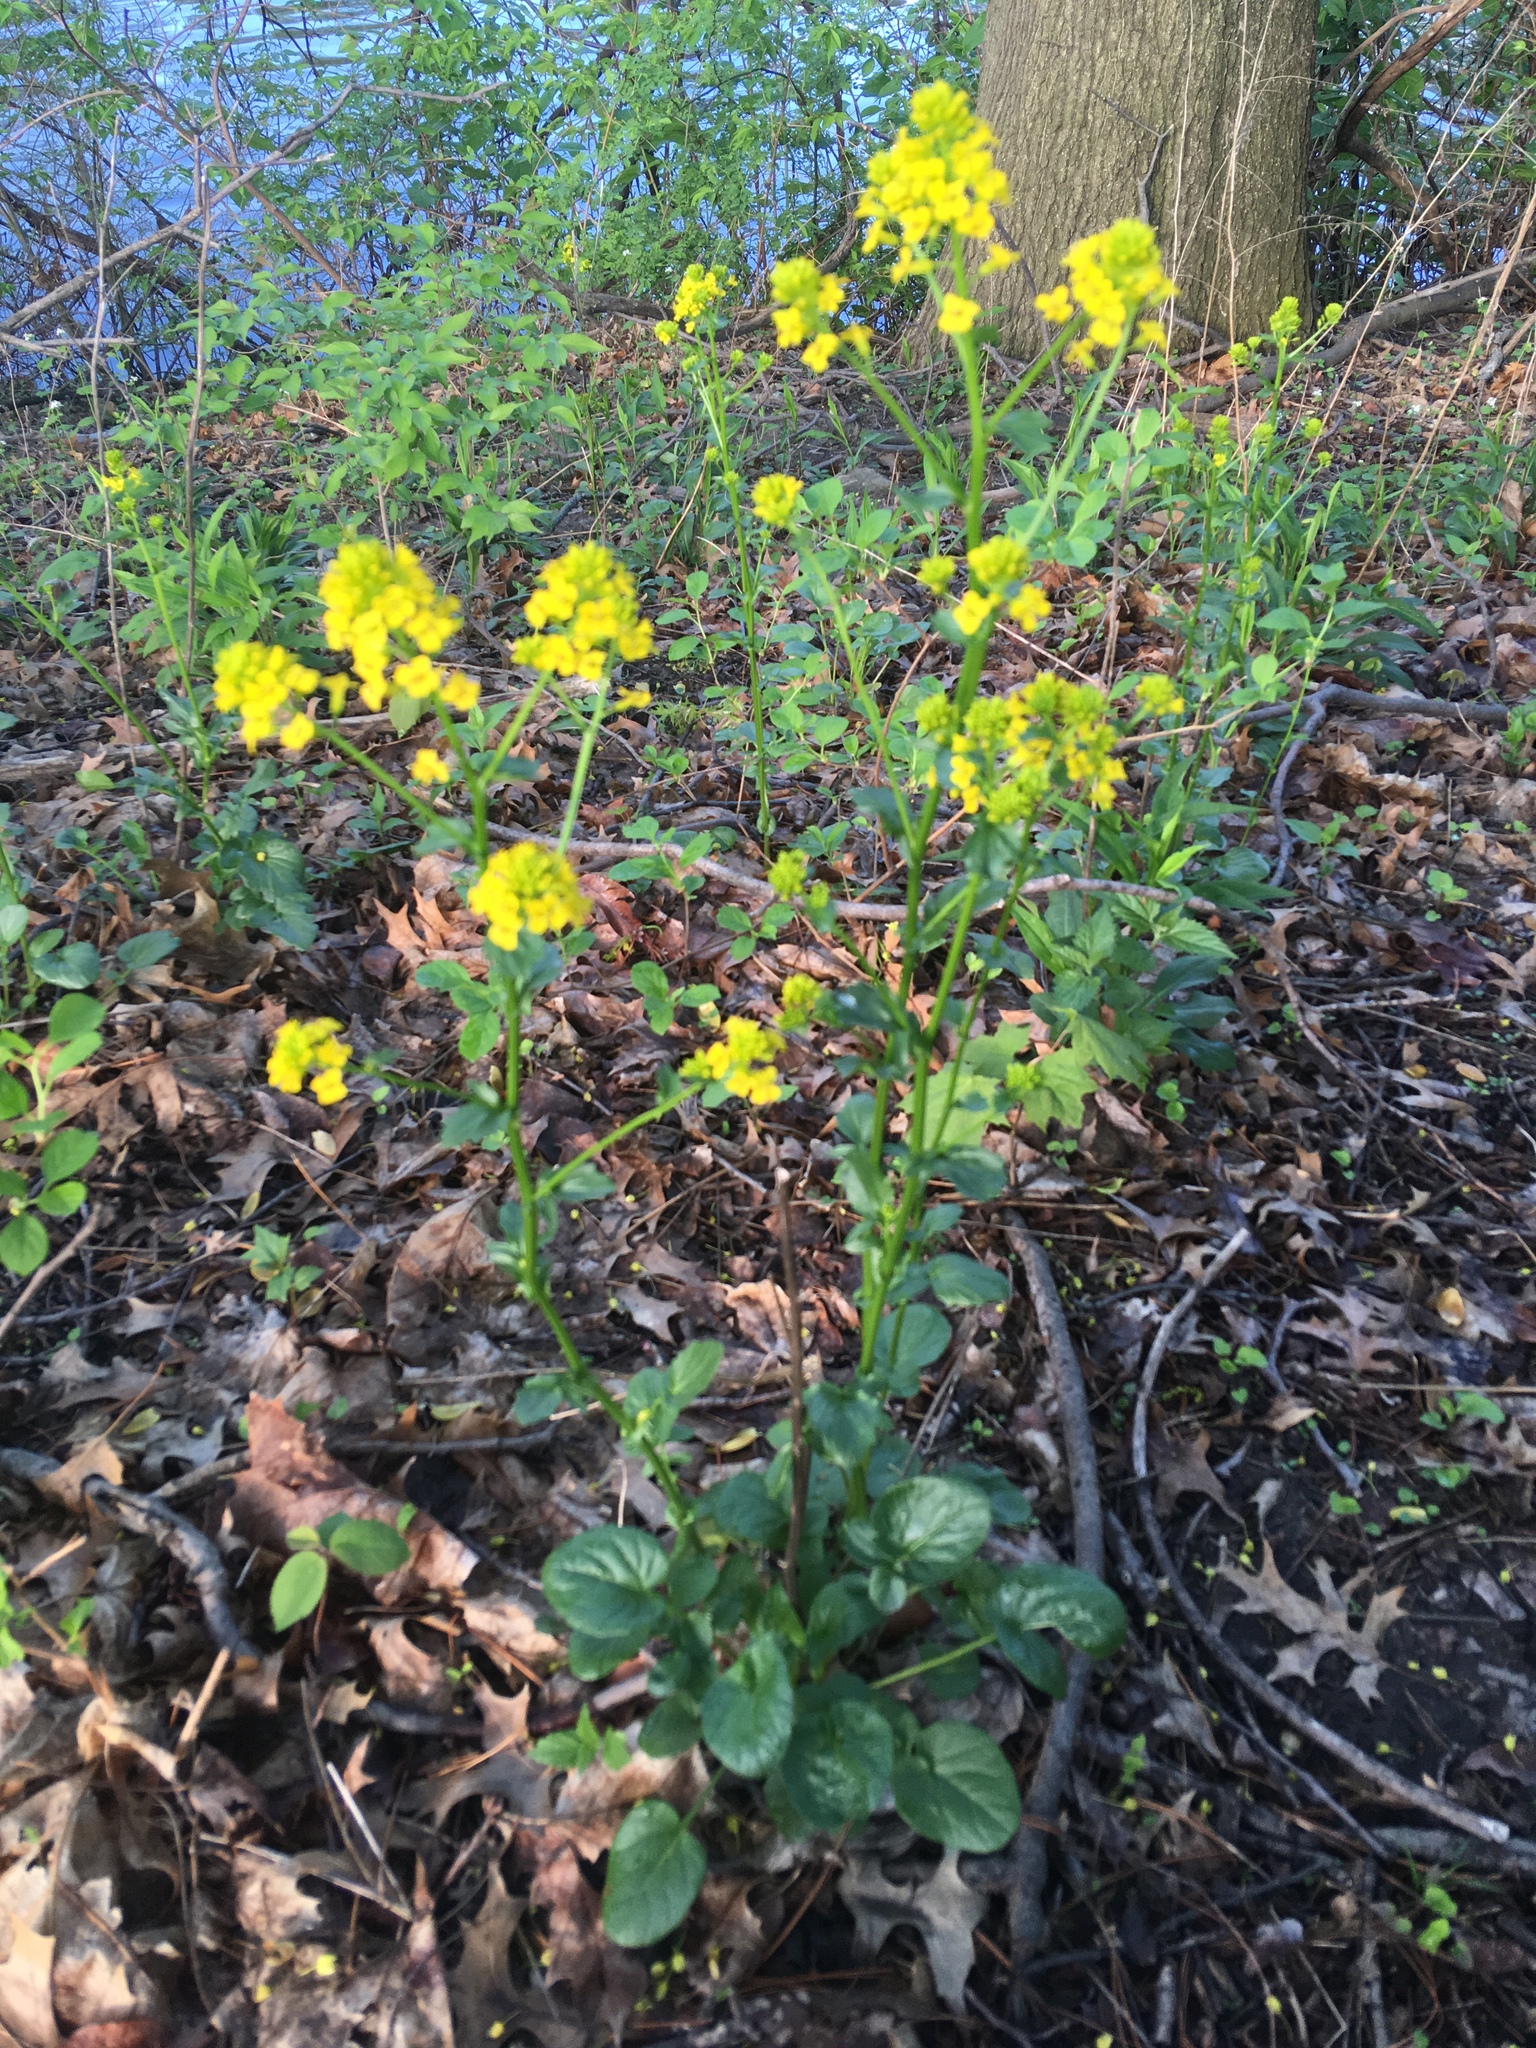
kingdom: Plantae
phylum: Tracheophyta
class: Magnoliopsida
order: Brassicales
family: Brassicaceae
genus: Barbarea
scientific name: Barbarea vulgaris
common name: Cressy-greens
